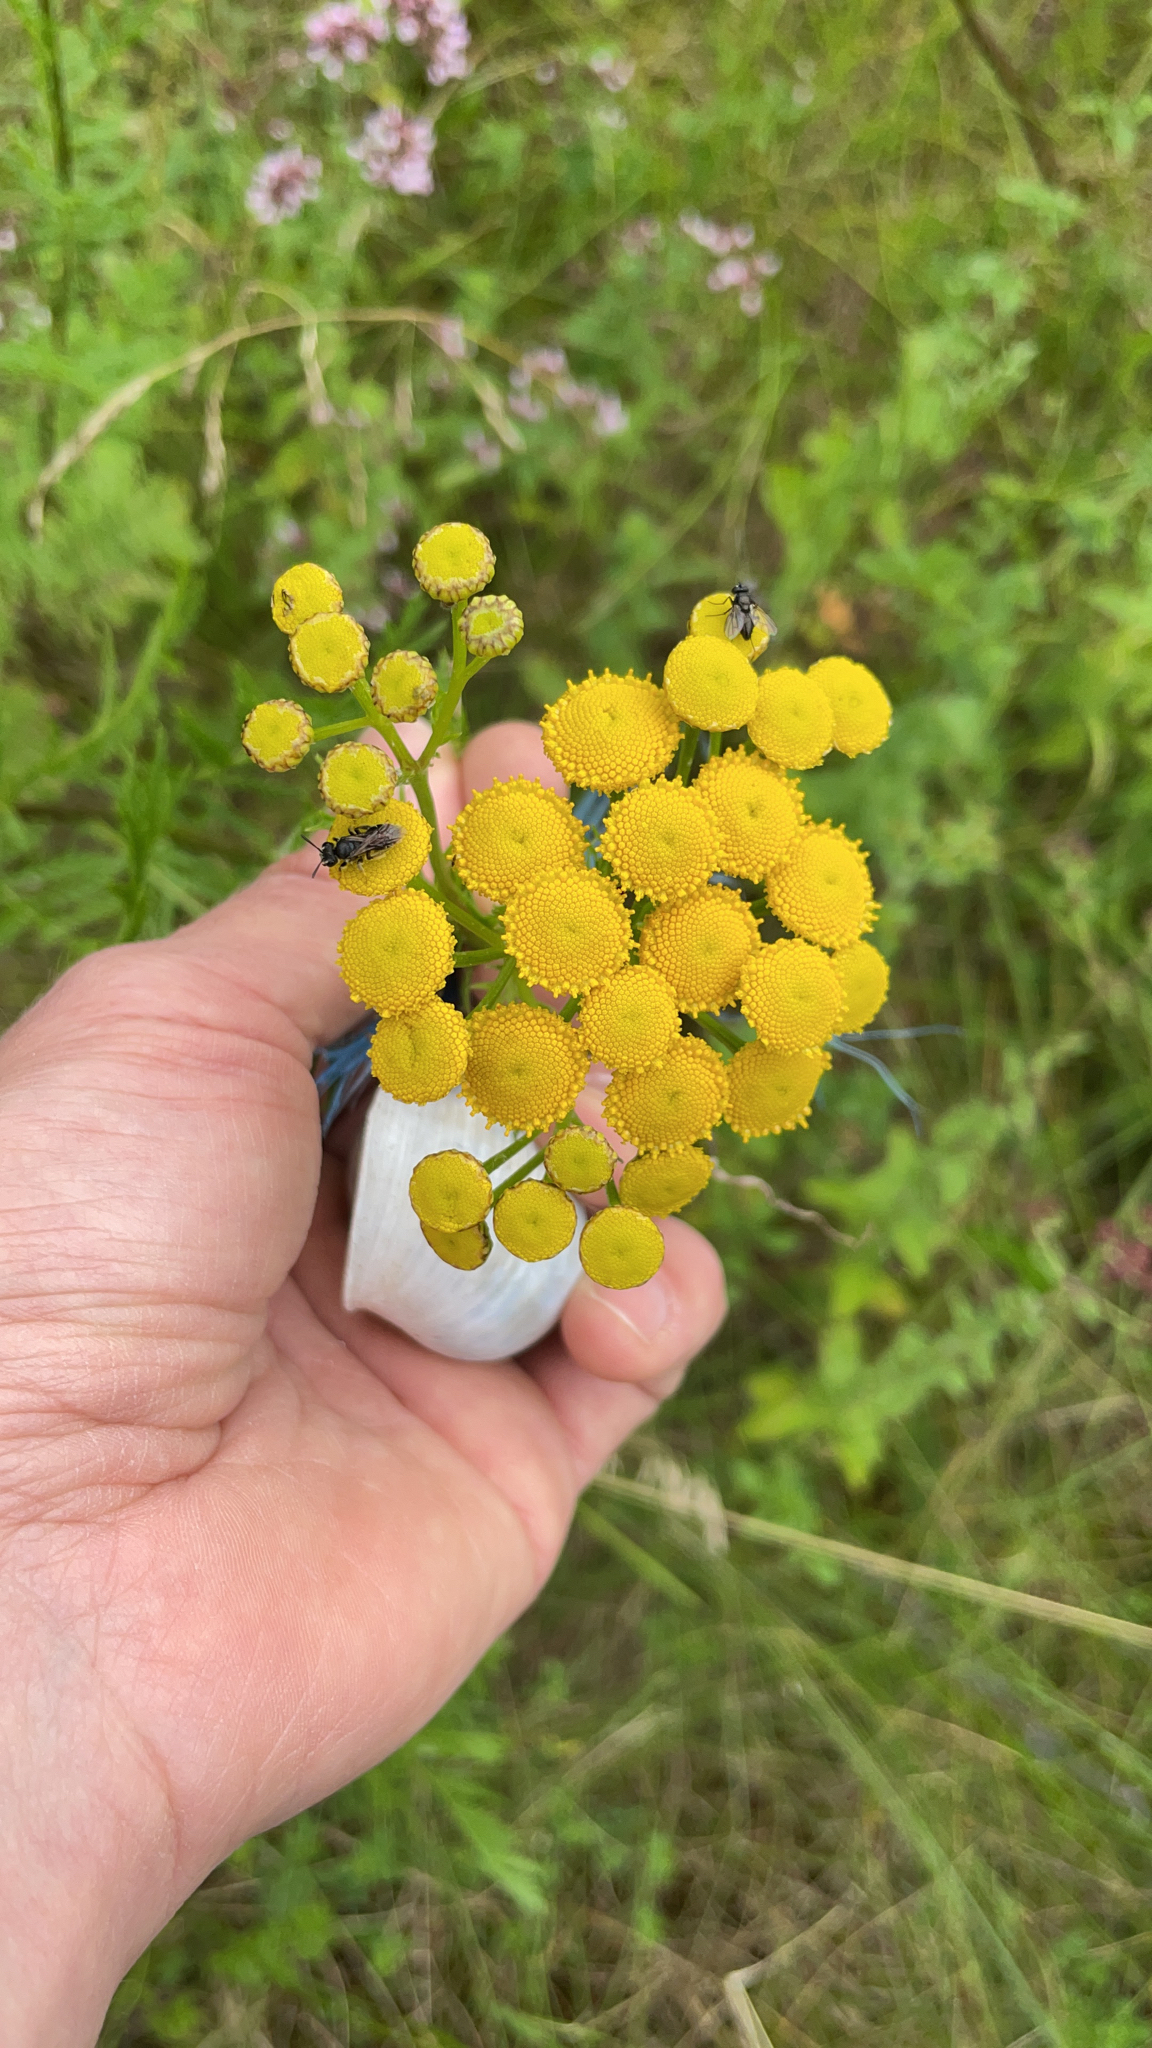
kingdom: Plantae
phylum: Tracheophyta
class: Magnoliopsida
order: Asterales
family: Asteraceae
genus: Tanacetum
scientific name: Tanacetum vulgare
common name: Common tansy
